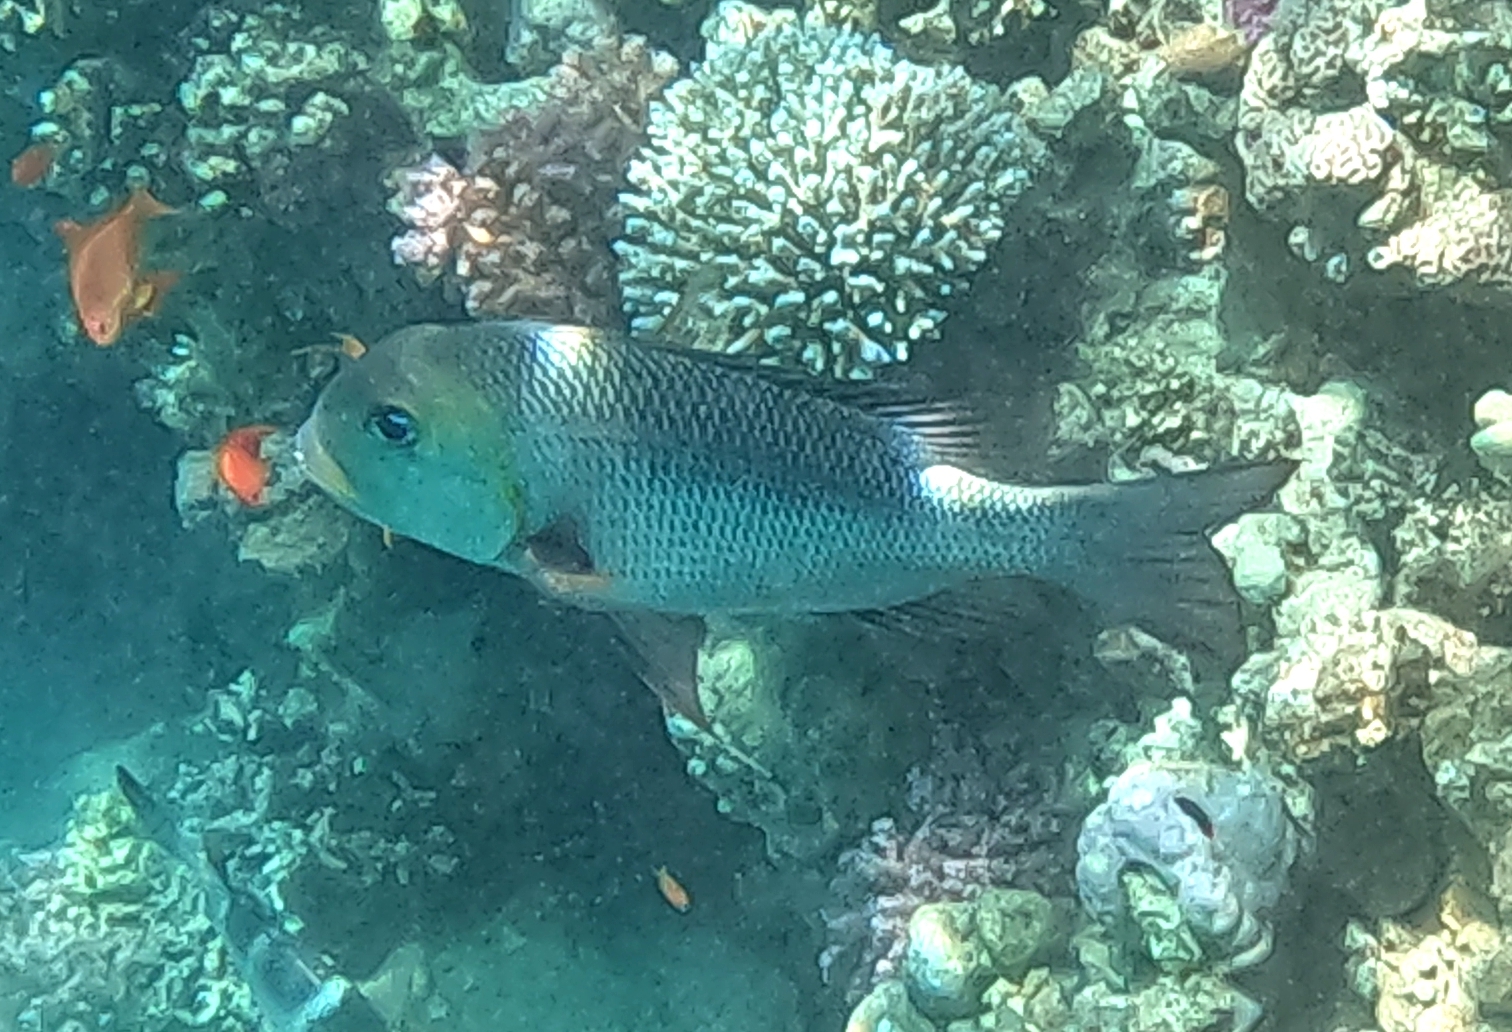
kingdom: Animalia
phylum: Chordata
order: Perciformes
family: Lethrinidae
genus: Monotaxis
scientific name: Monotaxis grandoculis
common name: Bigeye emperor
